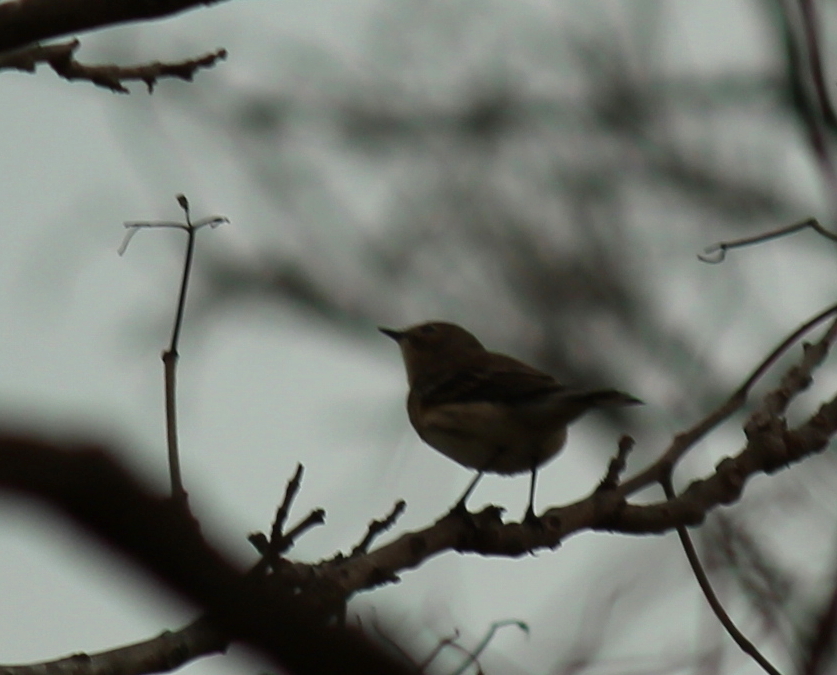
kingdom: Animalia
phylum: Chordata
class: Aves
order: Passeriformes
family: Parulidae
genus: Setophaga
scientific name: Setophaga coronata
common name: Myrtle warbler
